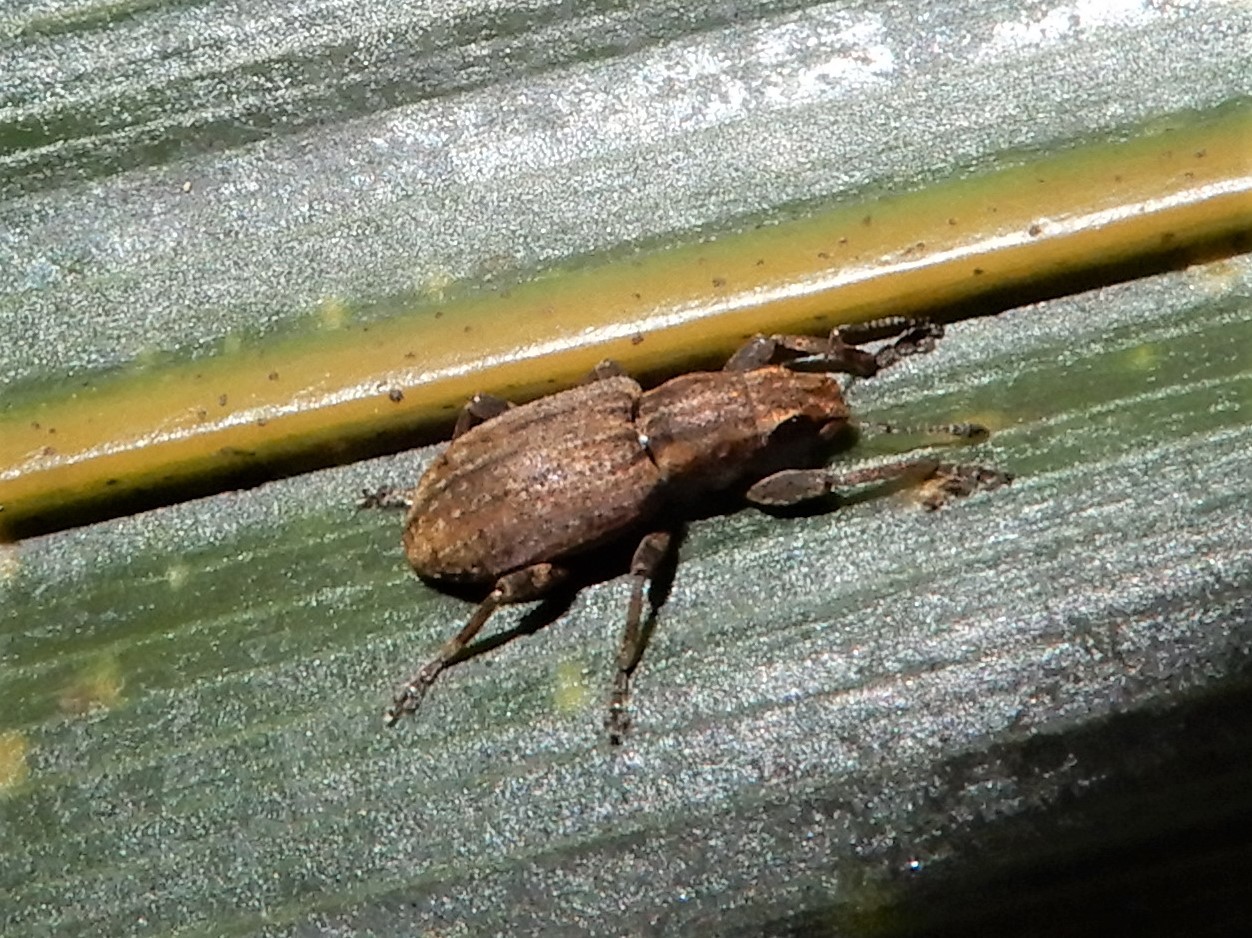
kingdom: Animalia
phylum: Arthropoda
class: Insecta
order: Coleoptera
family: Curculionidae
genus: Sitona
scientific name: Sitona obsoletus
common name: Weevil
